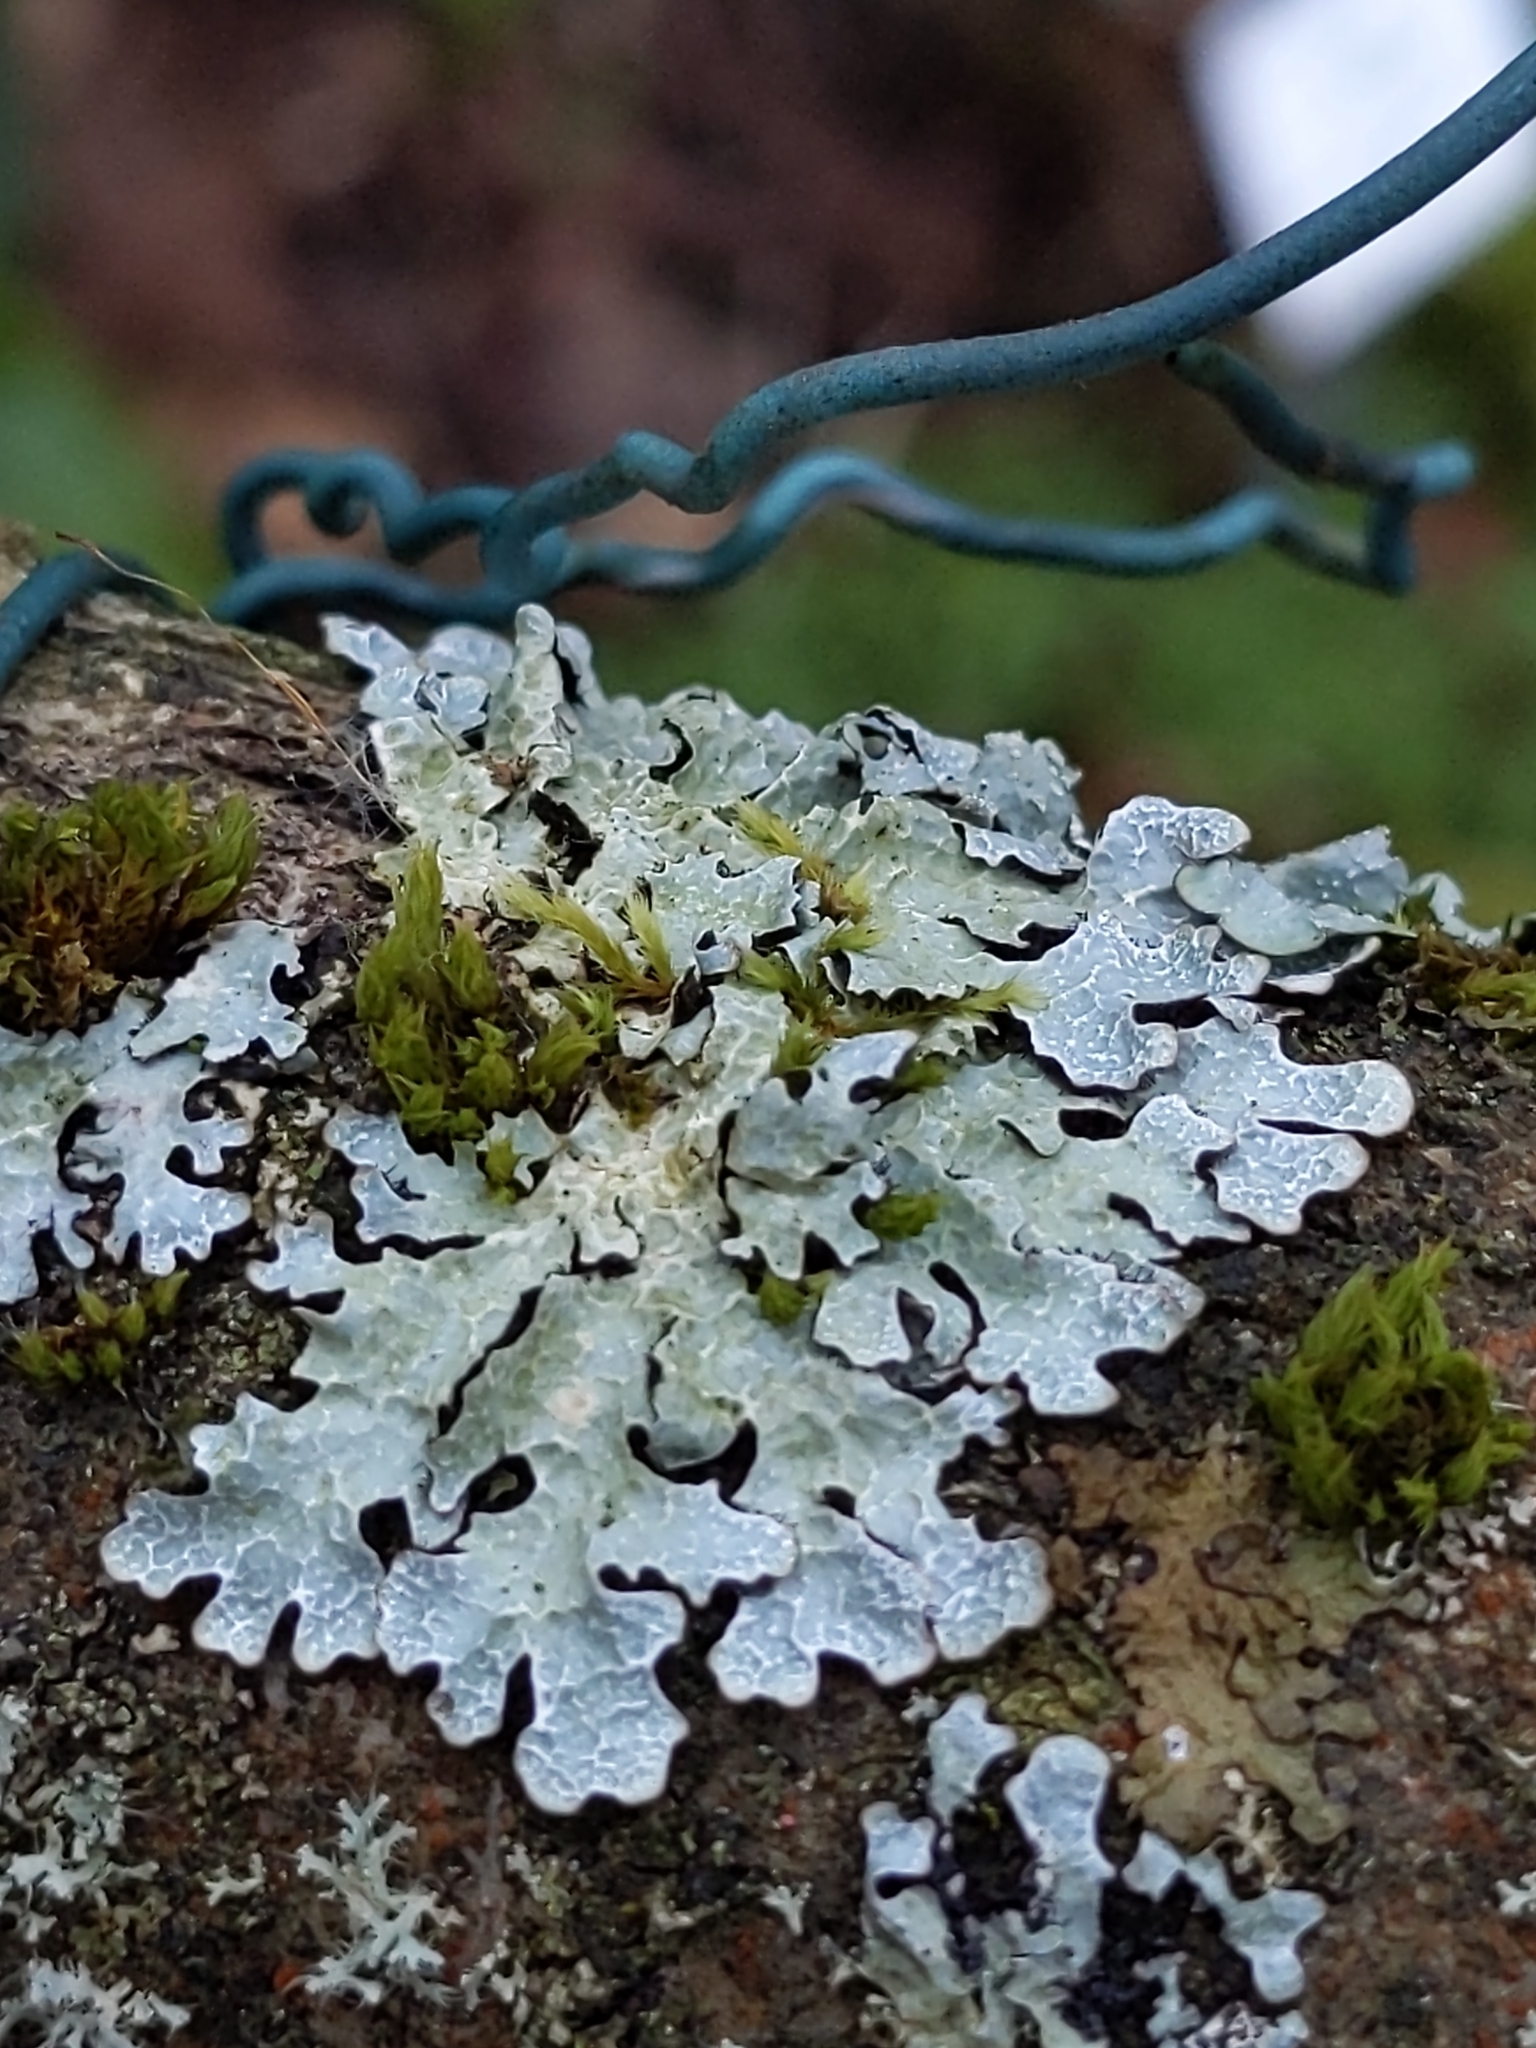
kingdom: Fungi
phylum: Ascomycota
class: Lecanoromycetes
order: Lecanorales
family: Parmeliaceae
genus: Parmelia
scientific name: Parmelia sulcata
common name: Netted shield lichen
